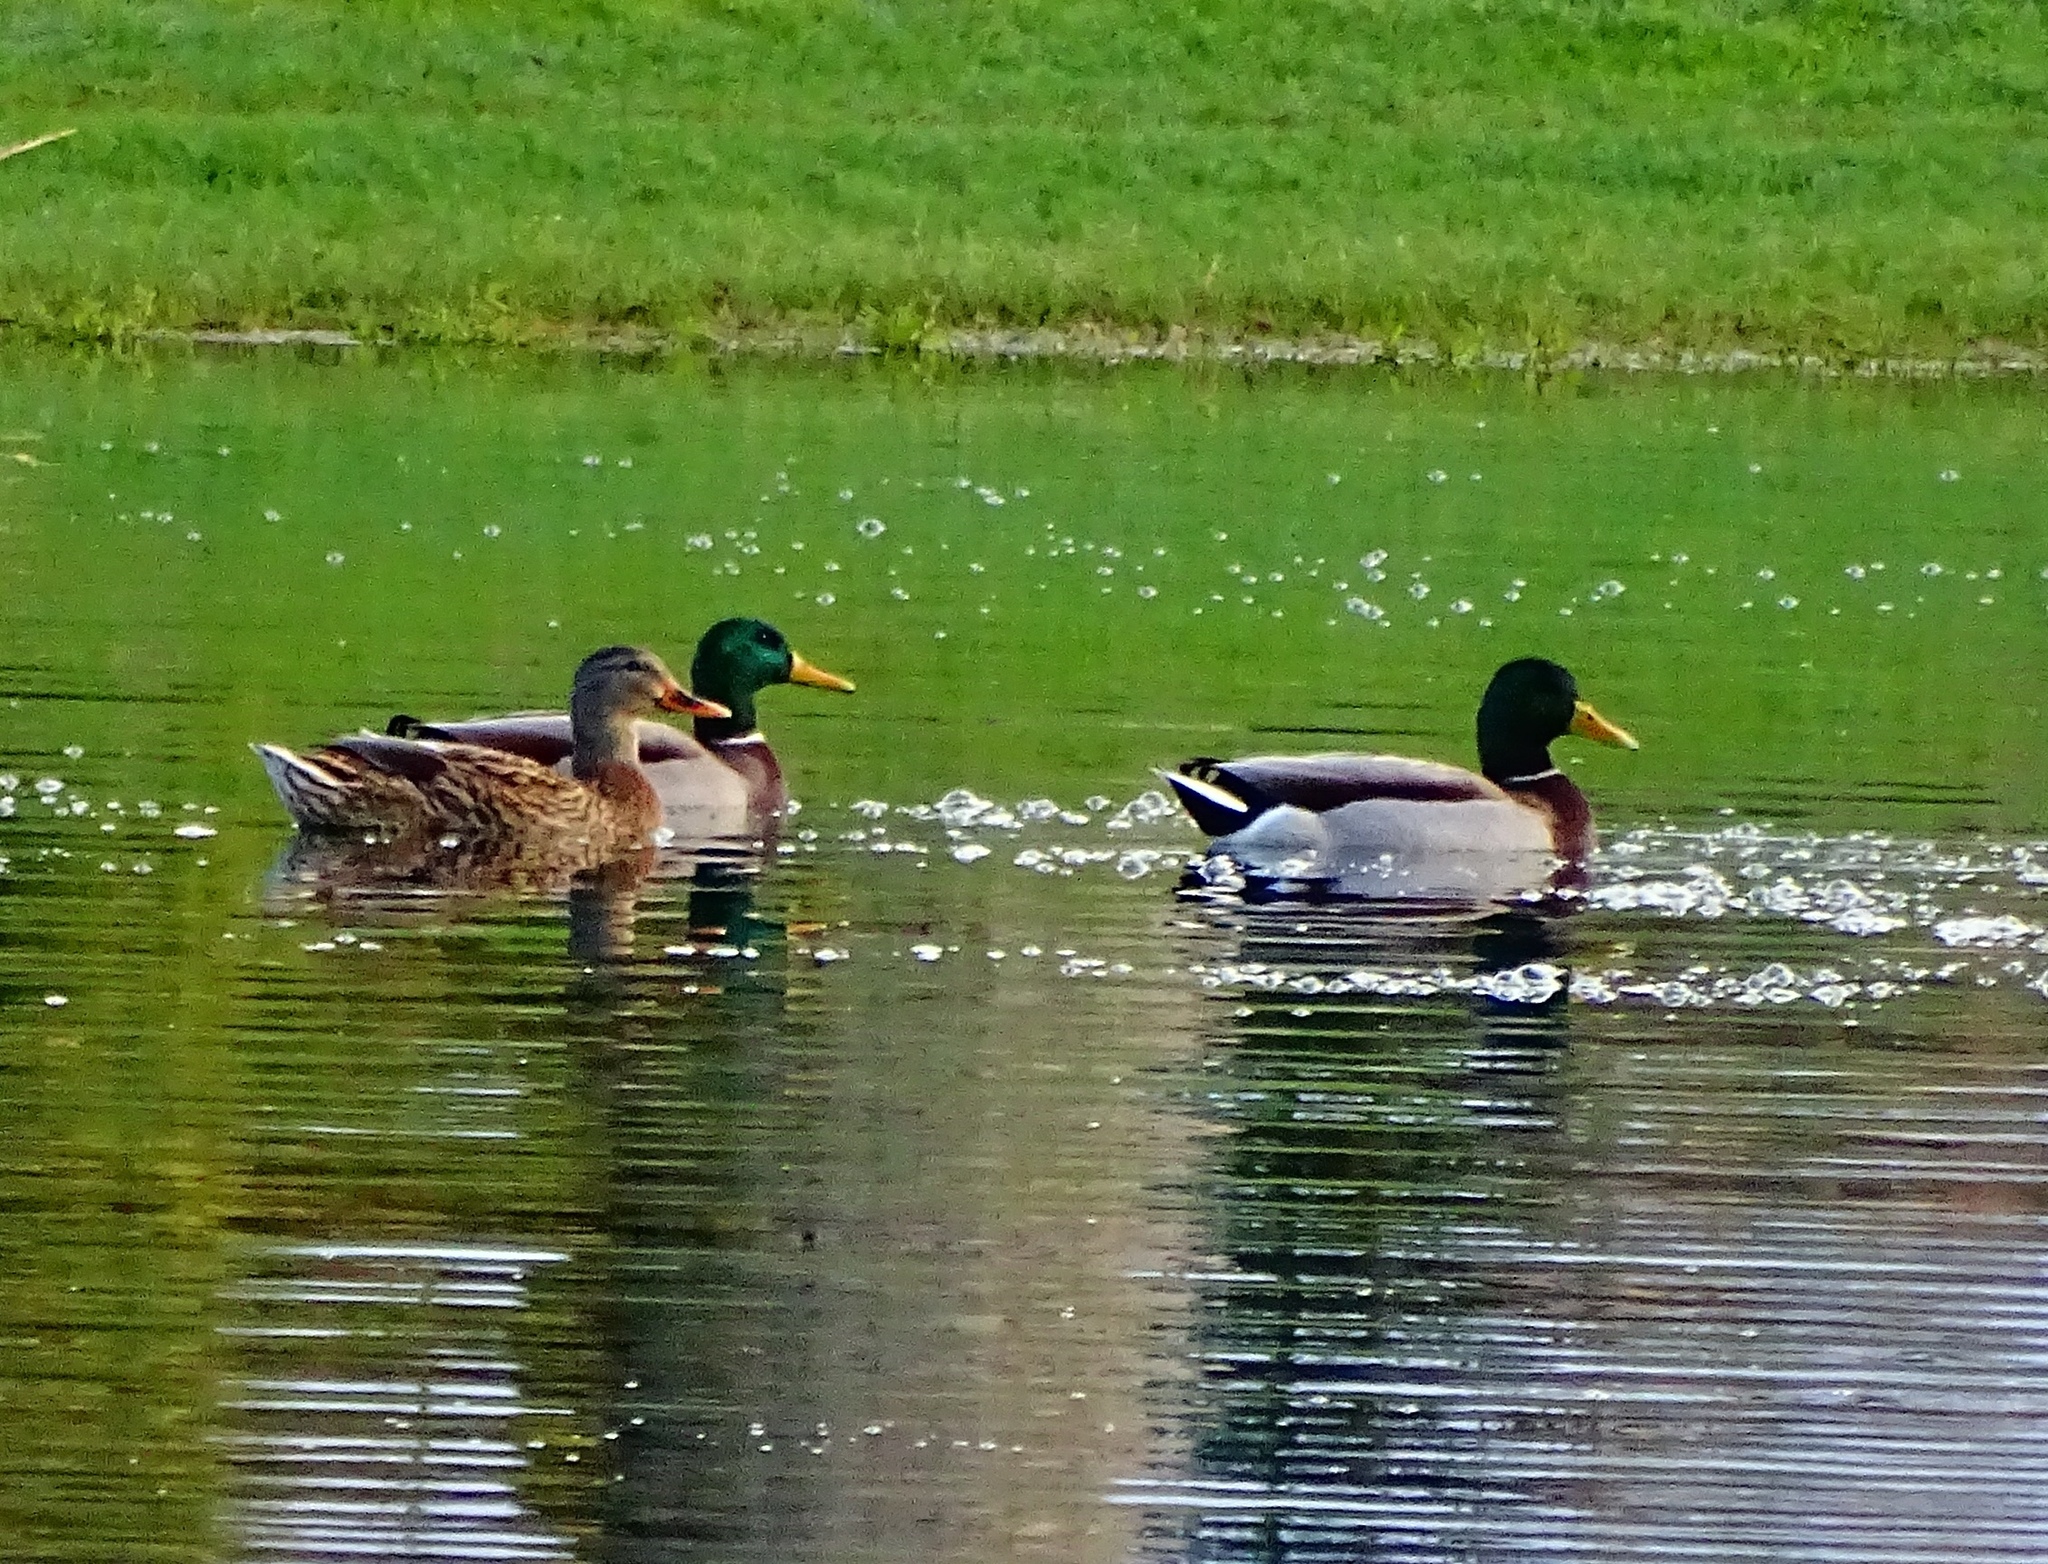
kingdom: Animalia
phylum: Chordata
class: Aves
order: Anseriformes
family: Anatidae
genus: Anas
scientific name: Anas platyrhynchos
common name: Mallard
